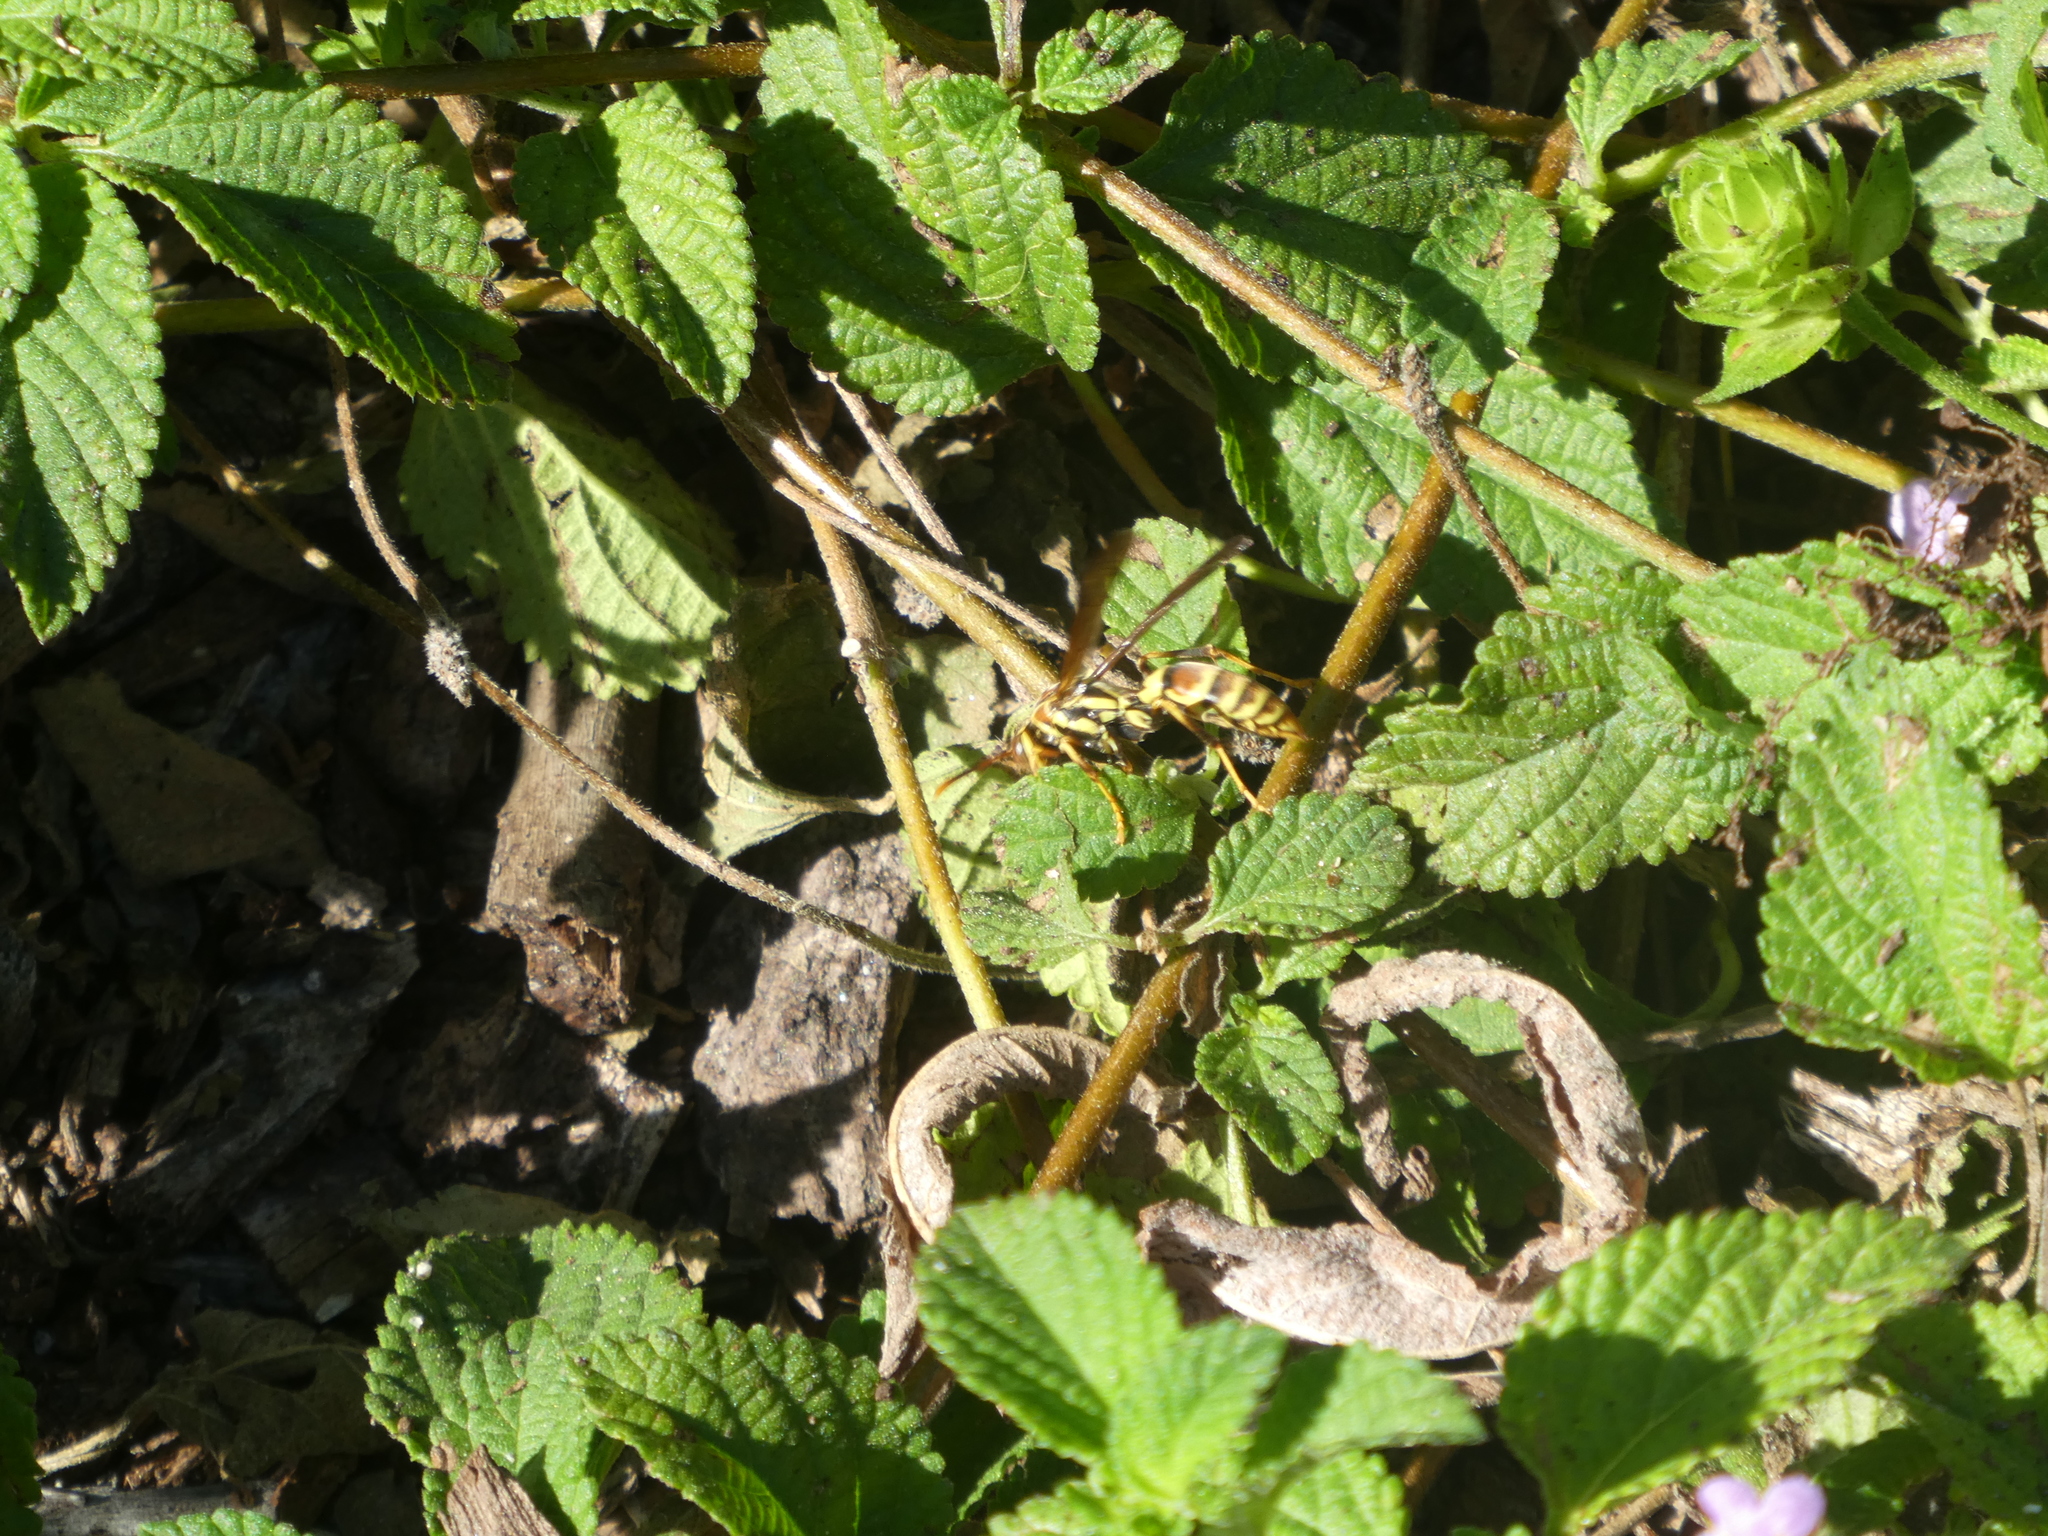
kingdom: Animalia
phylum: Arthropoda
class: Insecta
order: Hymenoptera
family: Eumenidae
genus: Polistes
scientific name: Polistes exclamans
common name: Paper wasp
